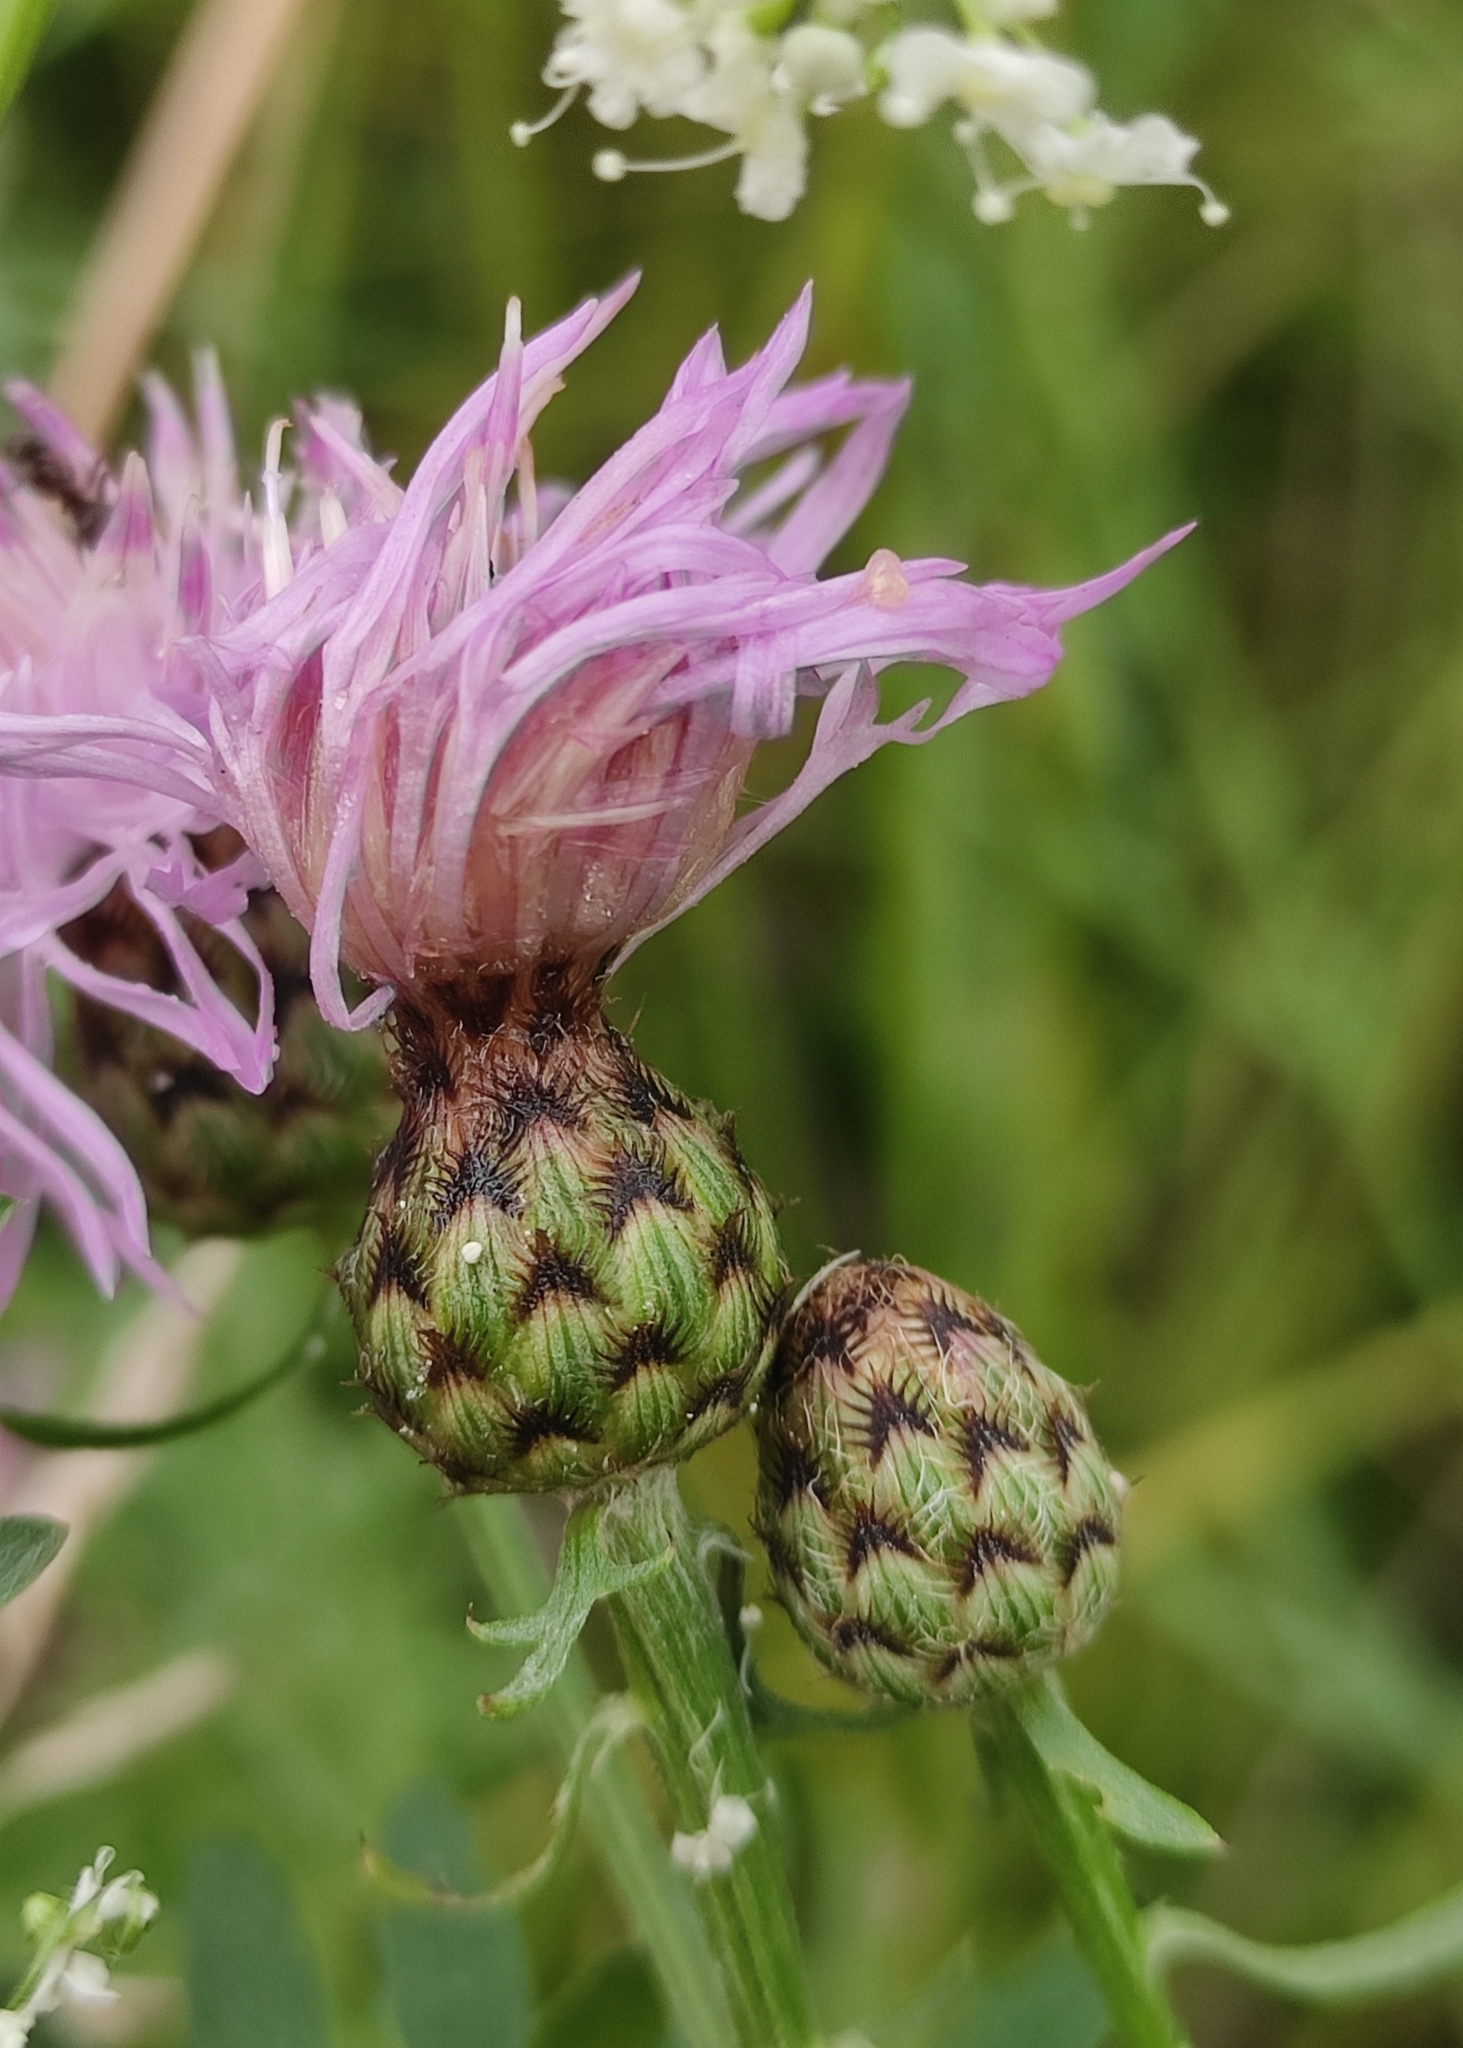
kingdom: Plantae
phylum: Tracheophyta
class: Magnoliopsida
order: Asterales
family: Asteraceae
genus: Centaurea
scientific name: Centaurea stoebe
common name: Spotted knapweed
